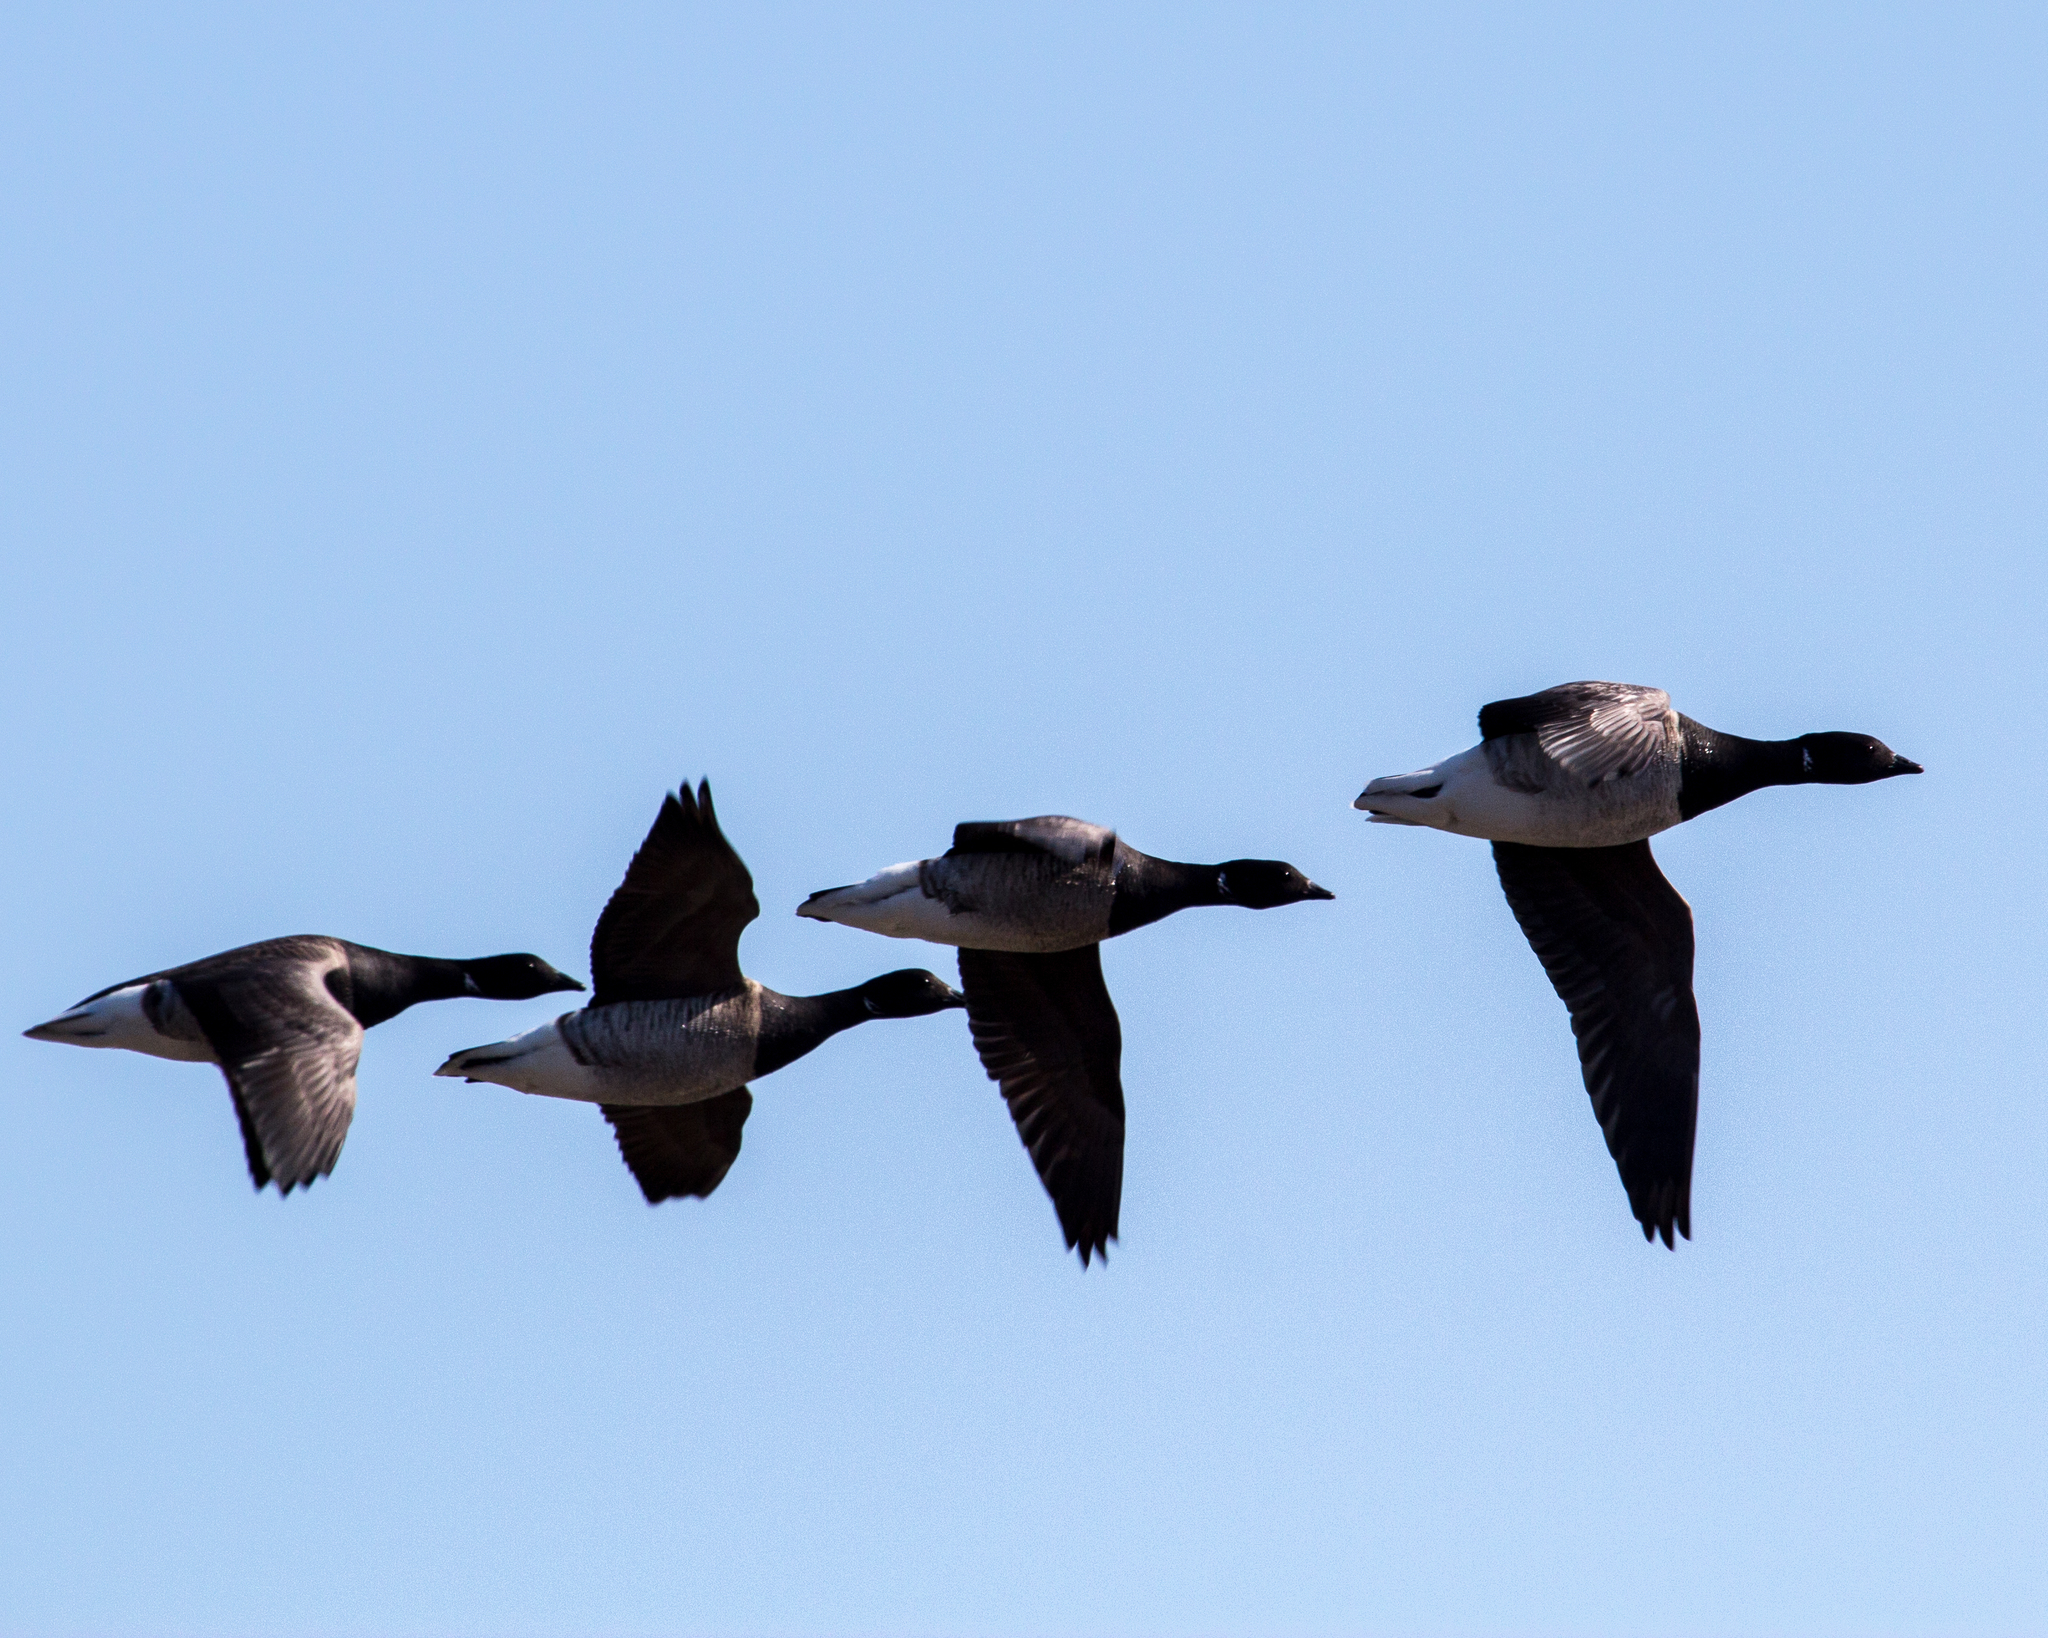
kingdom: Animalia
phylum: Chordata
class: Aves
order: Anseriformes
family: Anatidae
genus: Branta
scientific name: Branta bernicla
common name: Brant goose
